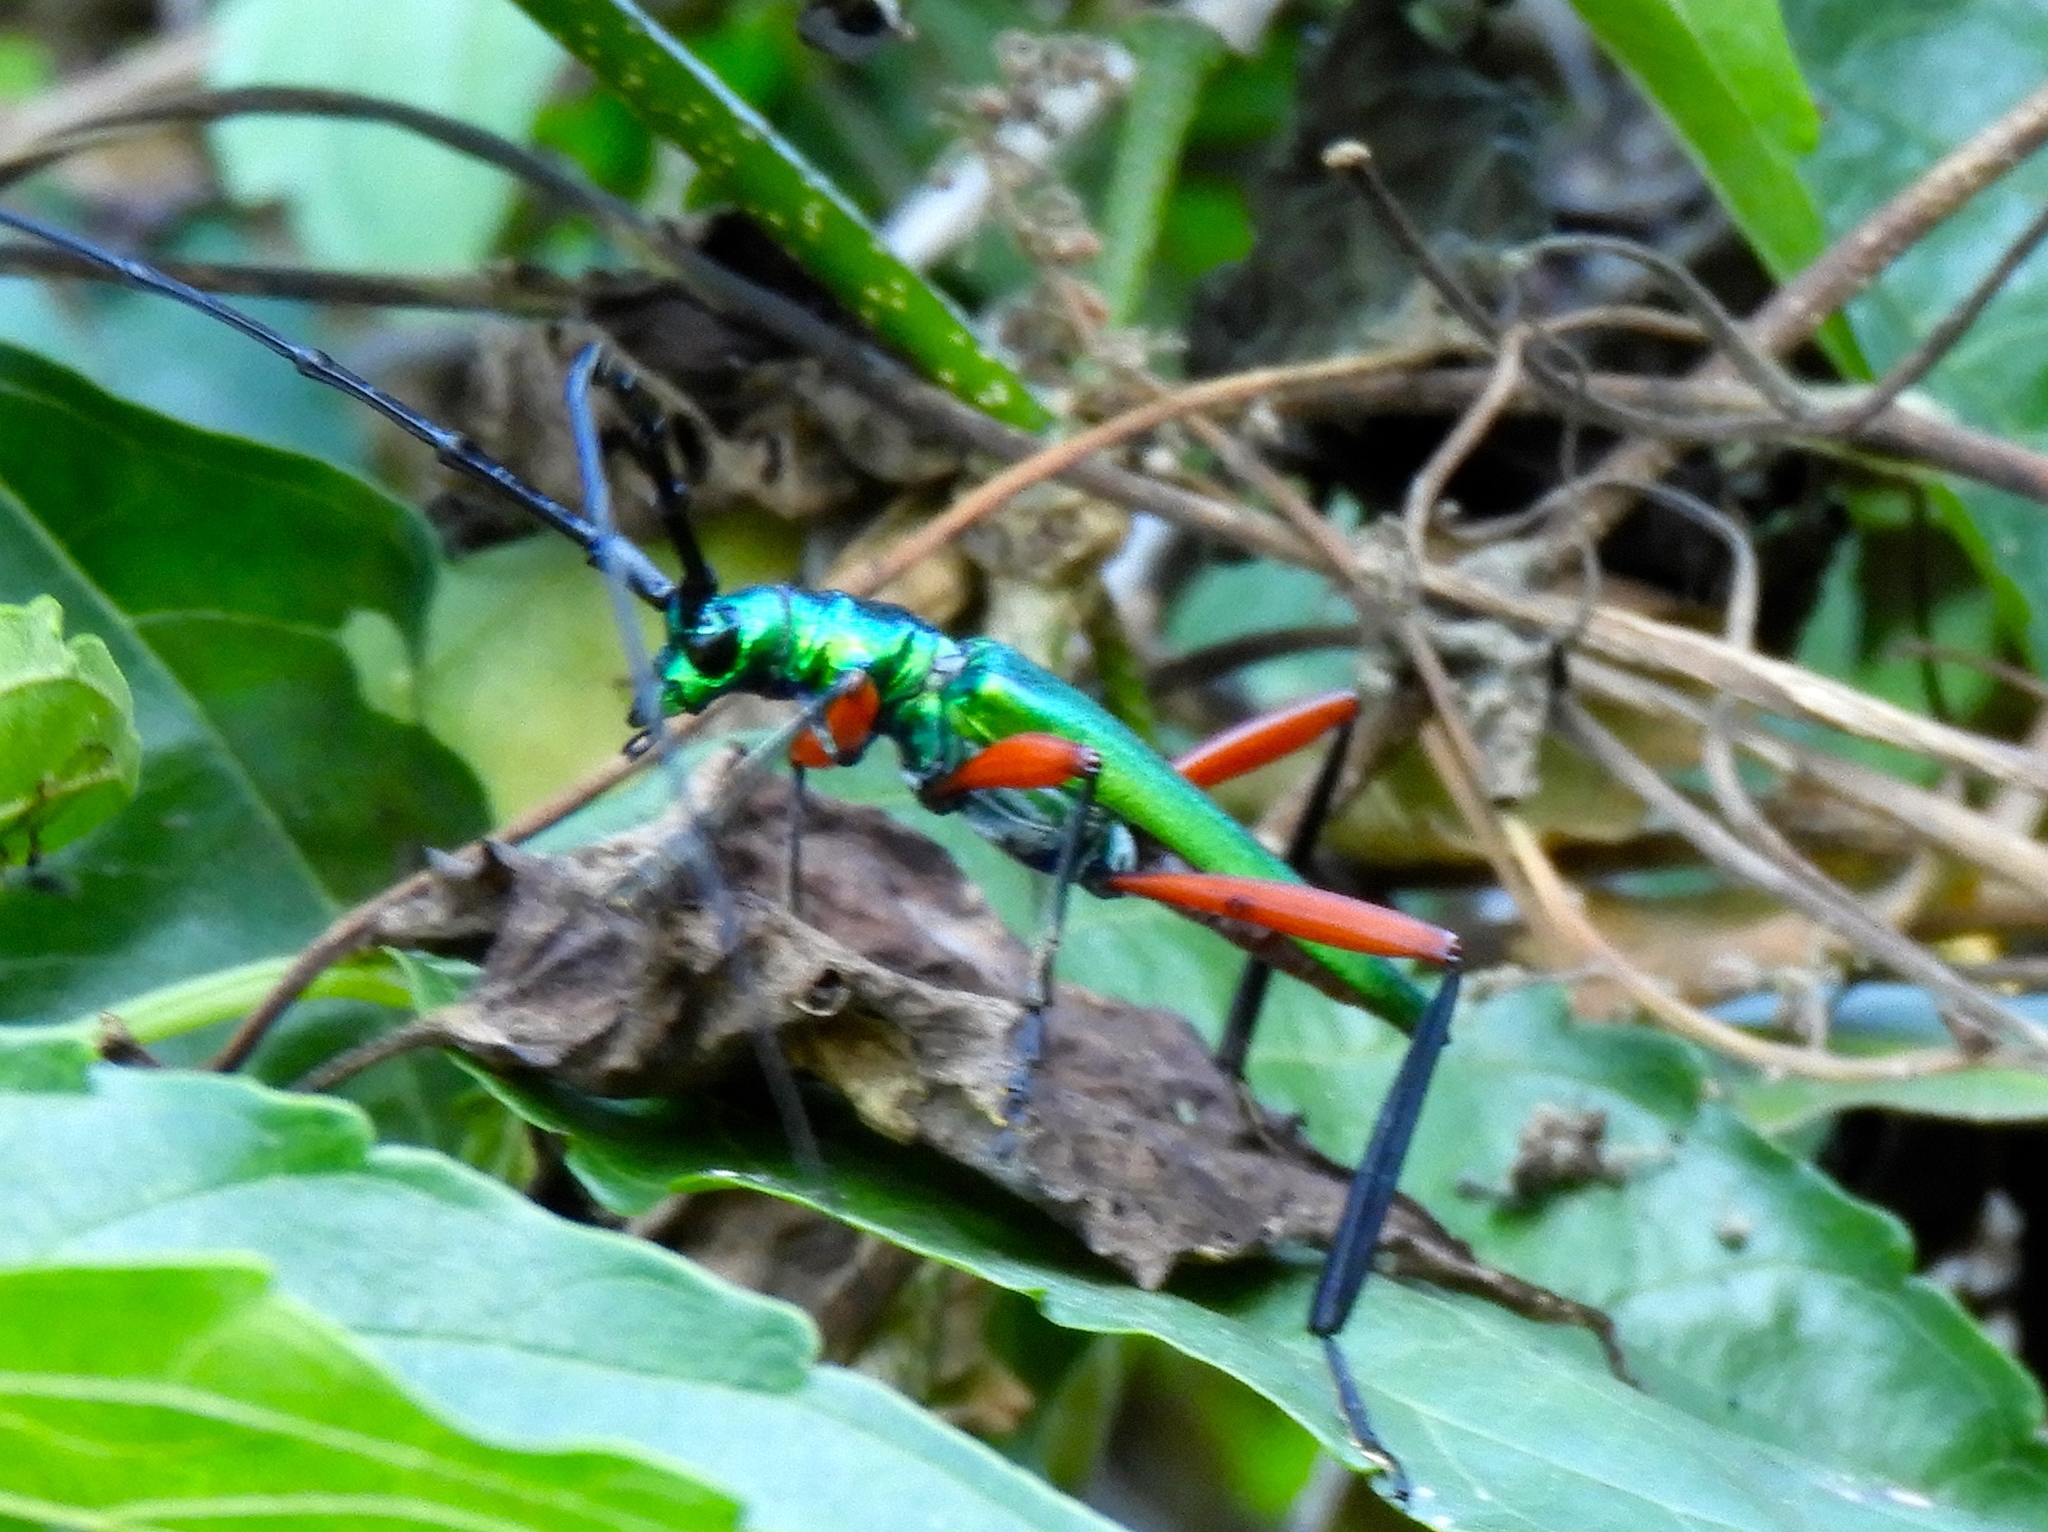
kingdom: Animalia
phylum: Arthropoda
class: Insecta
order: Coleoptera
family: Cerambycidae
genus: Plinthocoelium
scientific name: Plinthocoelium chilensis
